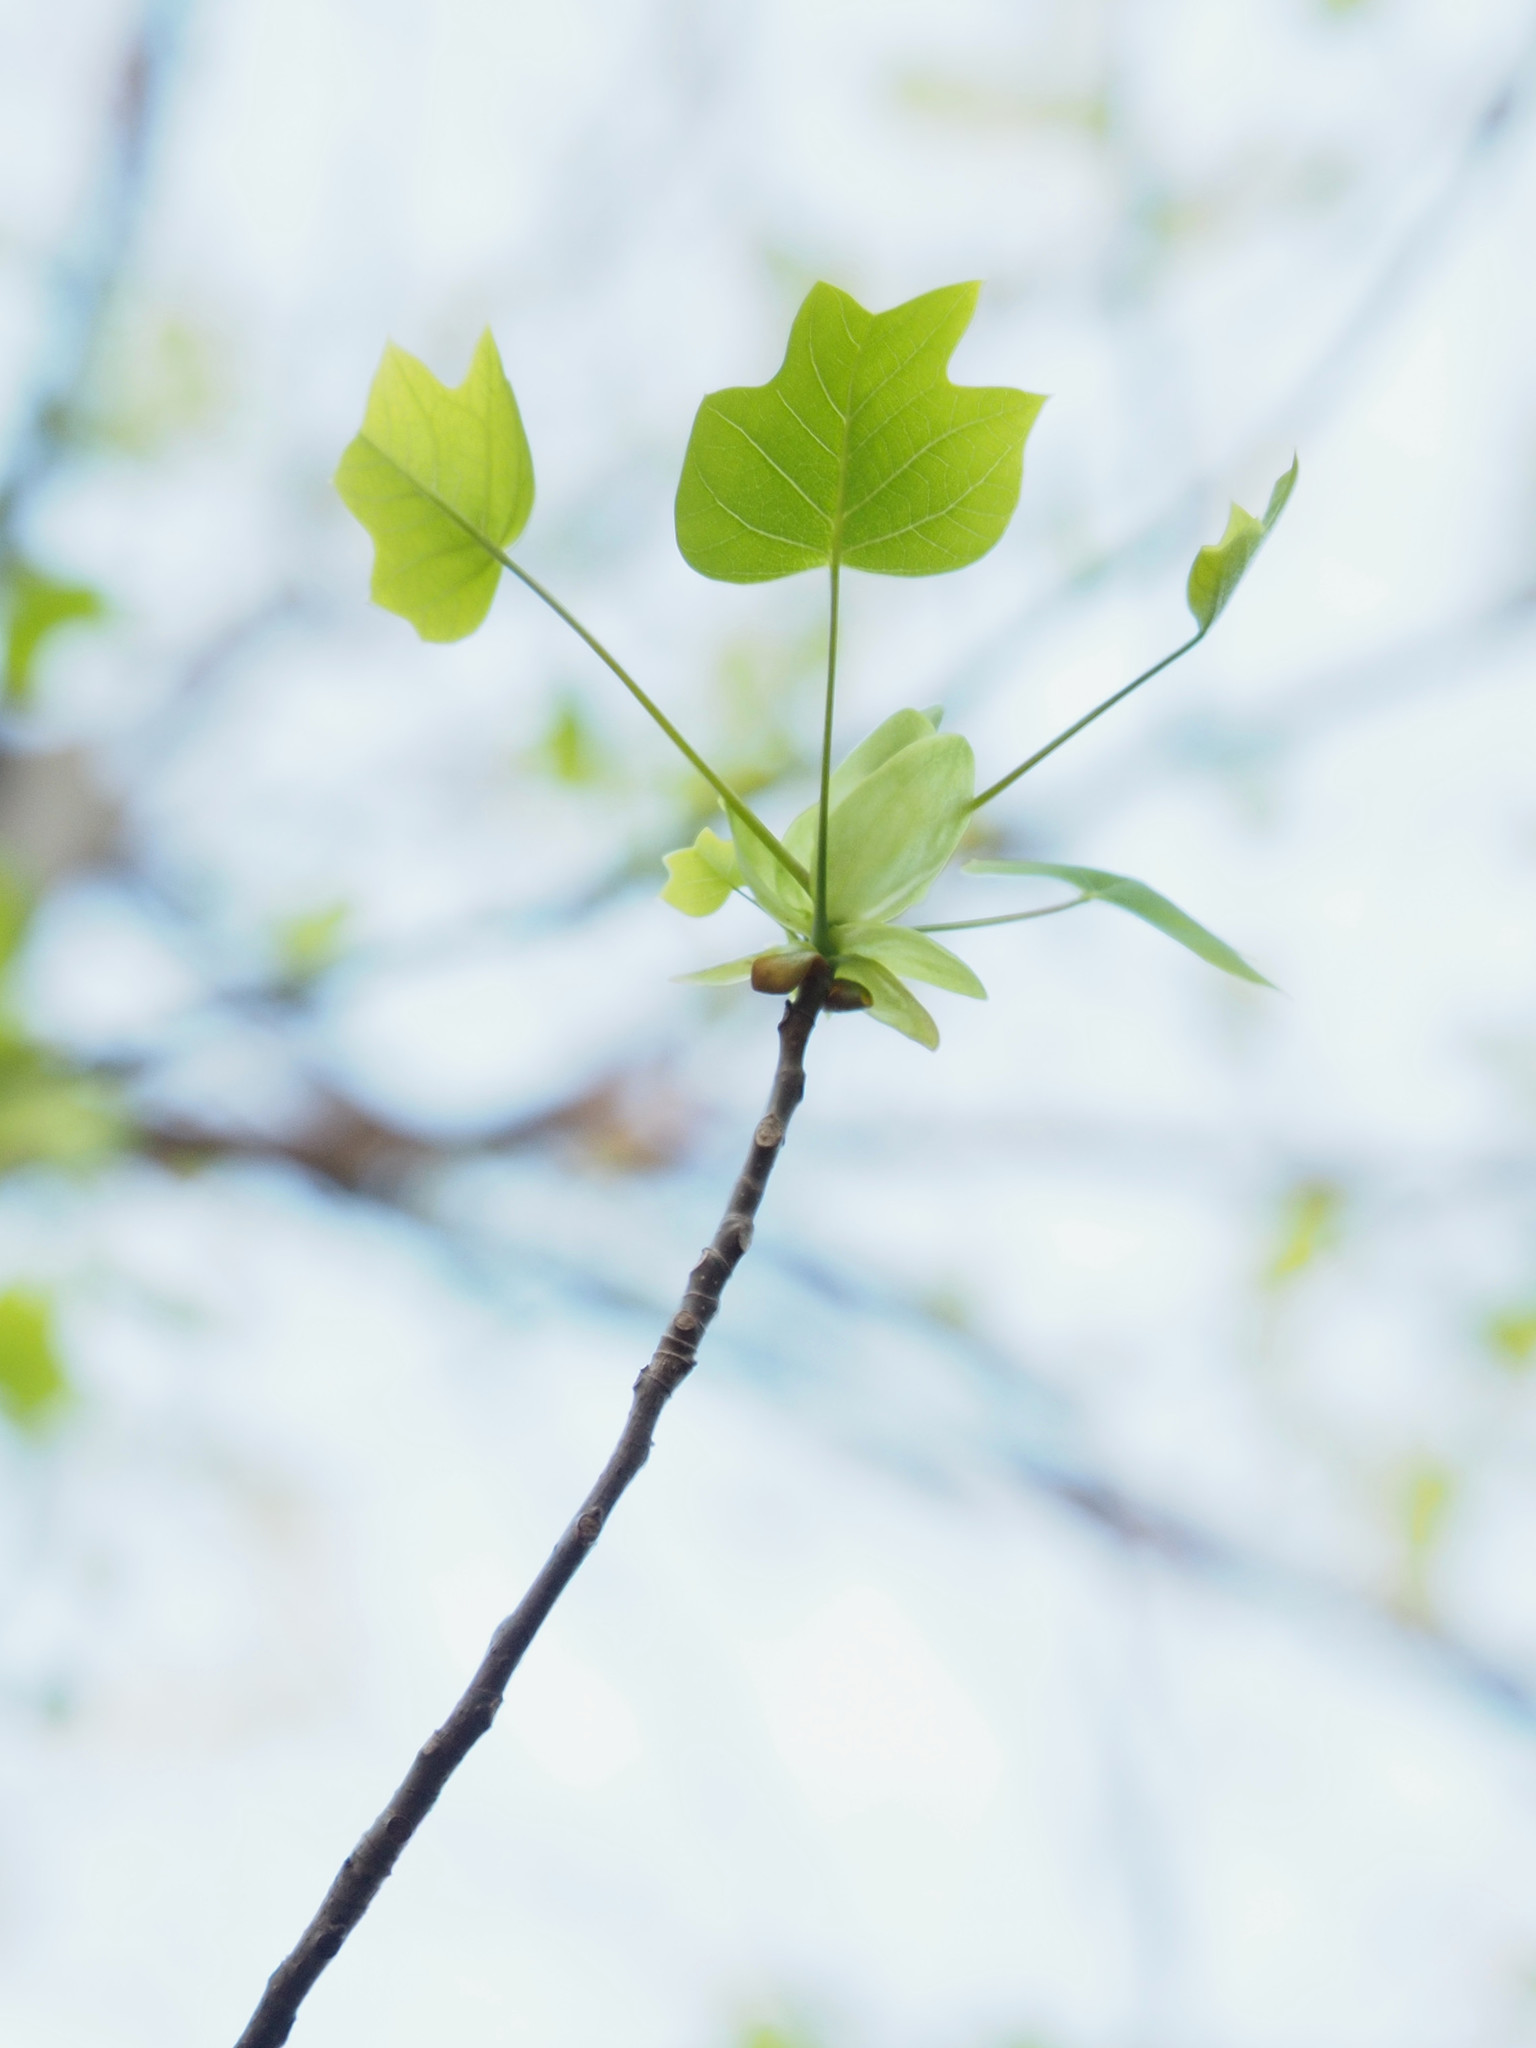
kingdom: Plantae
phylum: Tracheophyta
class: Magnoliopsida
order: Magnoliales
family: Magnoliaceae
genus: Liriodendron
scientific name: Liriodendron tulipifera
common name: Tulip tree
